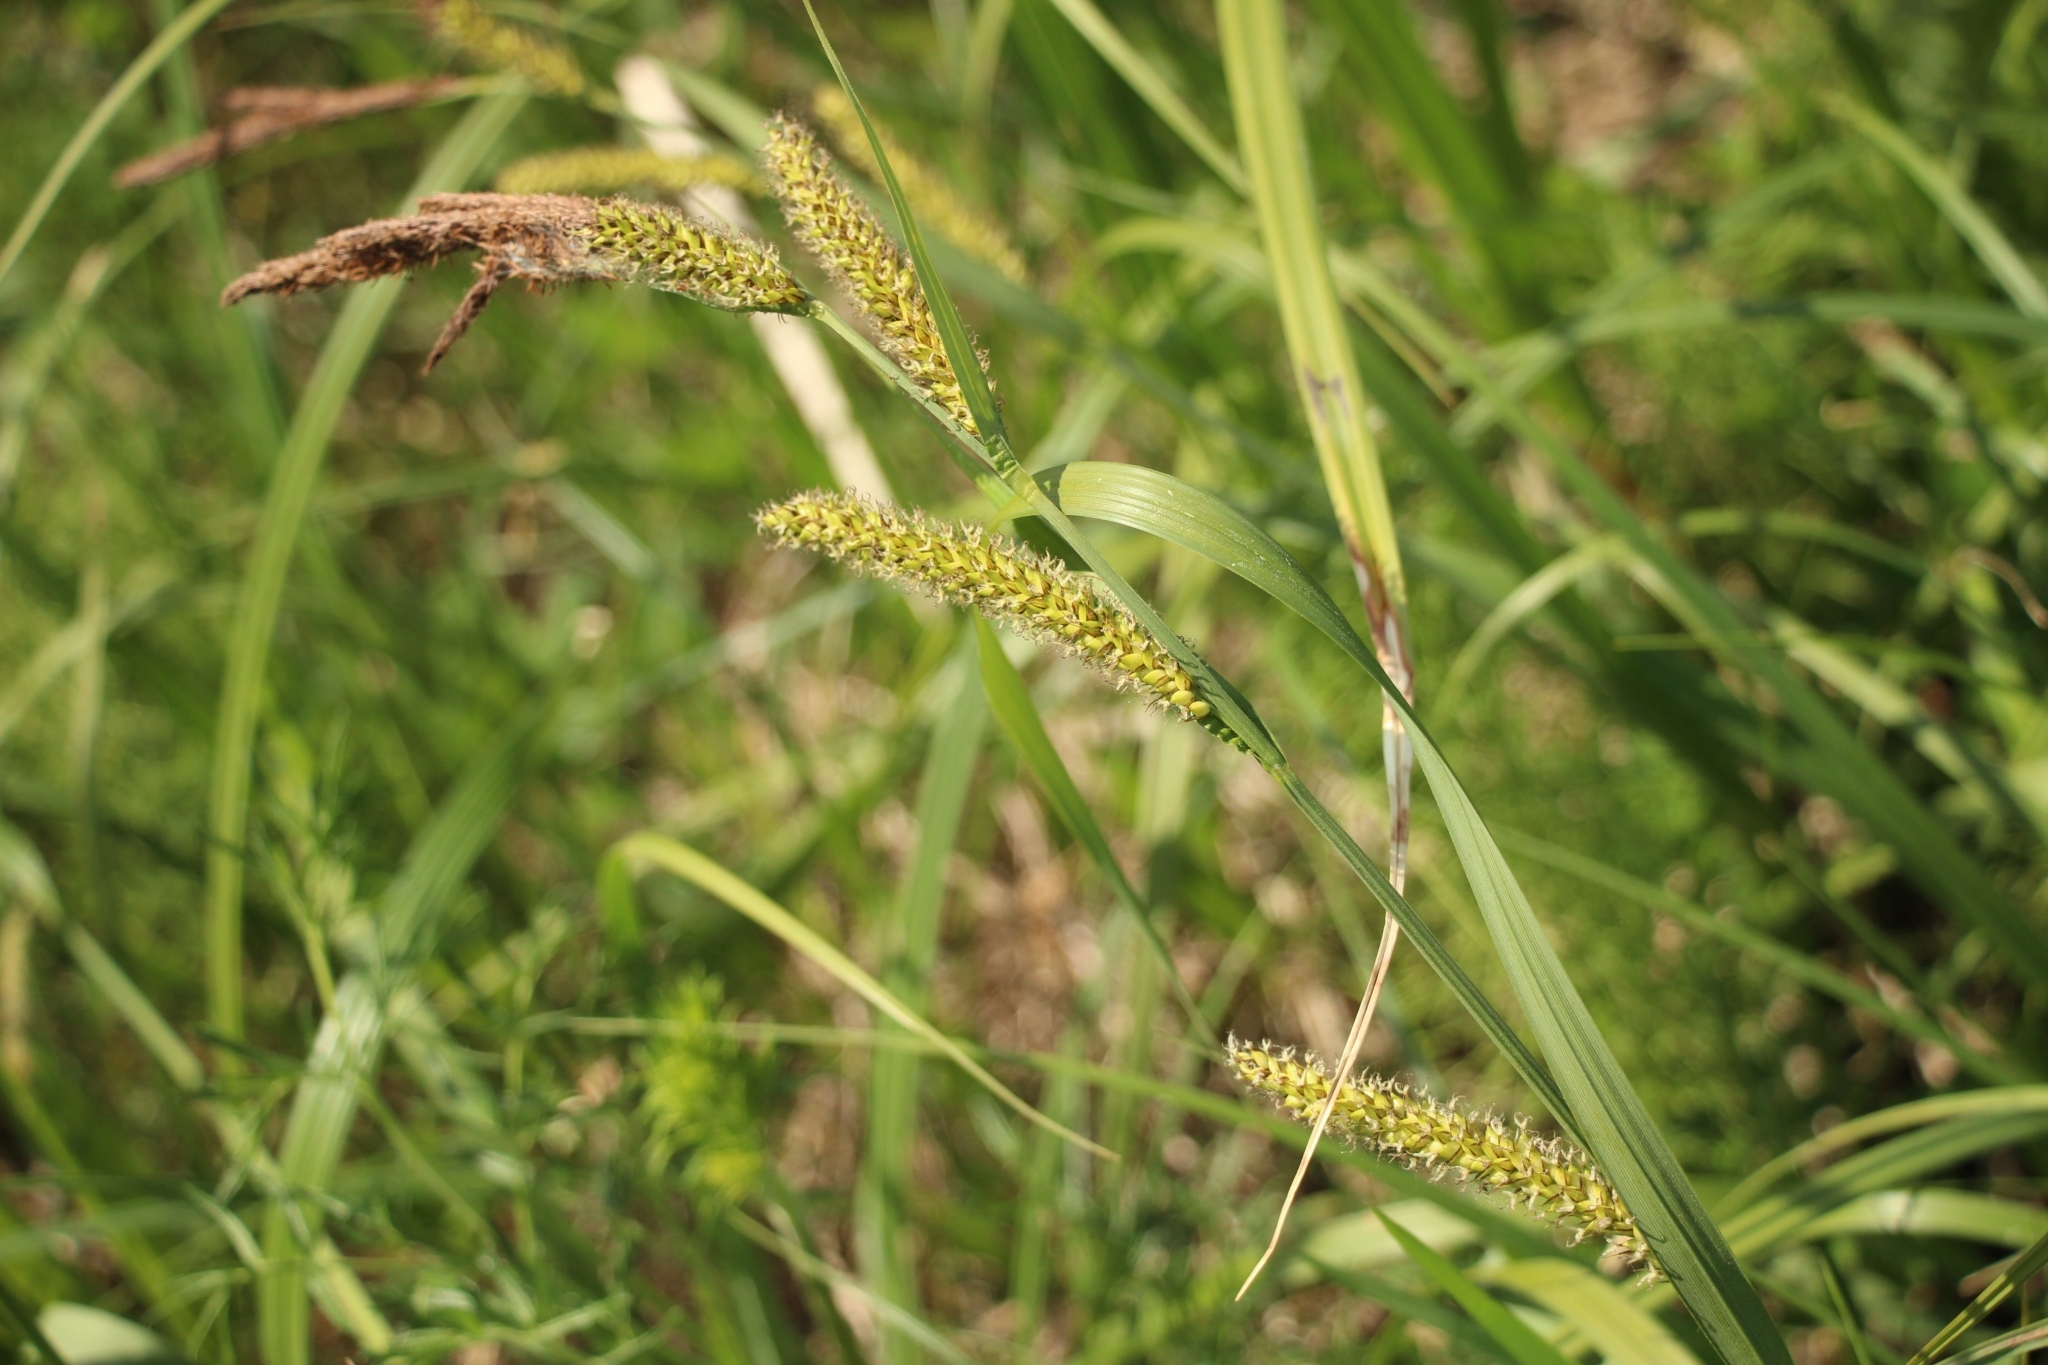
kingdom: Plantae
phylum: Tracheophyta
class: Liliopsida
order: Poales
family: Cyperaceae
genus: Carex
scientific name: Carex acuta
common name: Slender tufted-sedge
